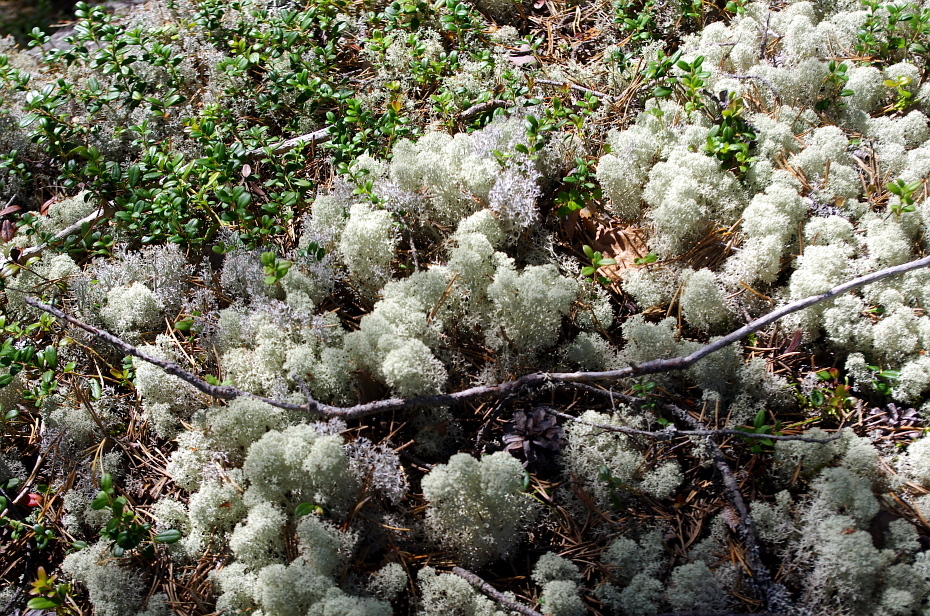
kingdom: Fungi
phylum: Ascomycota
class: Lecanoromycetes
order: Lecanorales
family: Cladoniaceae
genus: Cladonia
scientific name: Cladonia stellaris
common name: Star-tipped reindeer lichen
